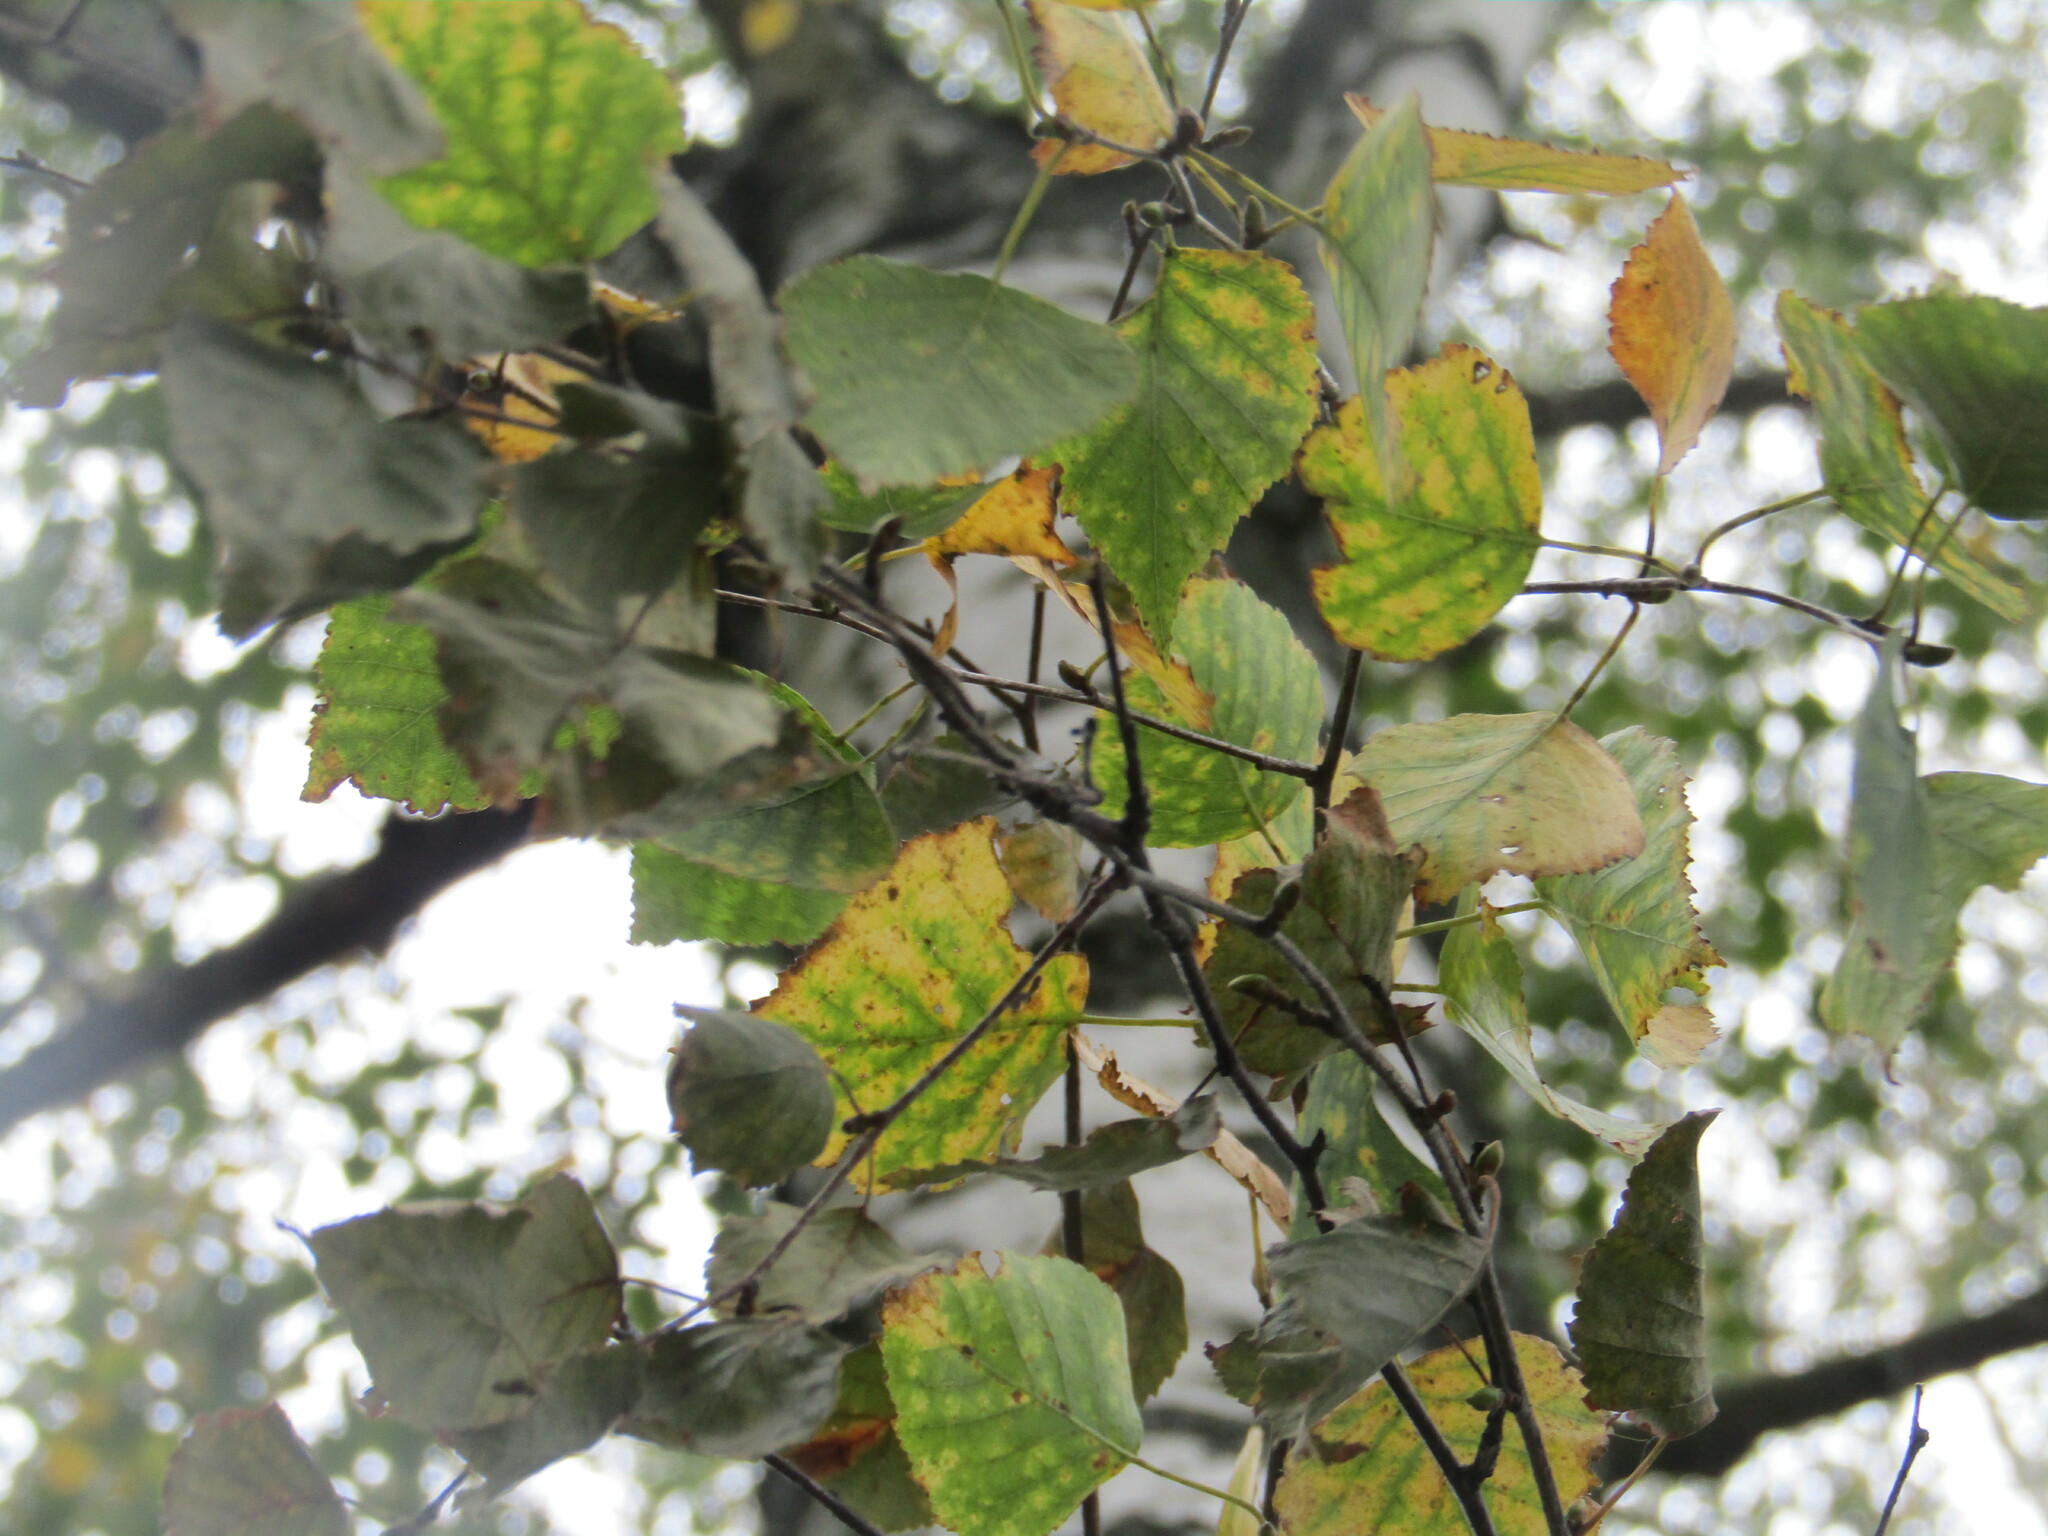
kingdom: Plantae
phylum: Tracheophyta
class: Magnoliopsida
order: Fagales
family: Betulaceae
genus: Betula
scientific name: Betula pendula
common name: Silver birch
